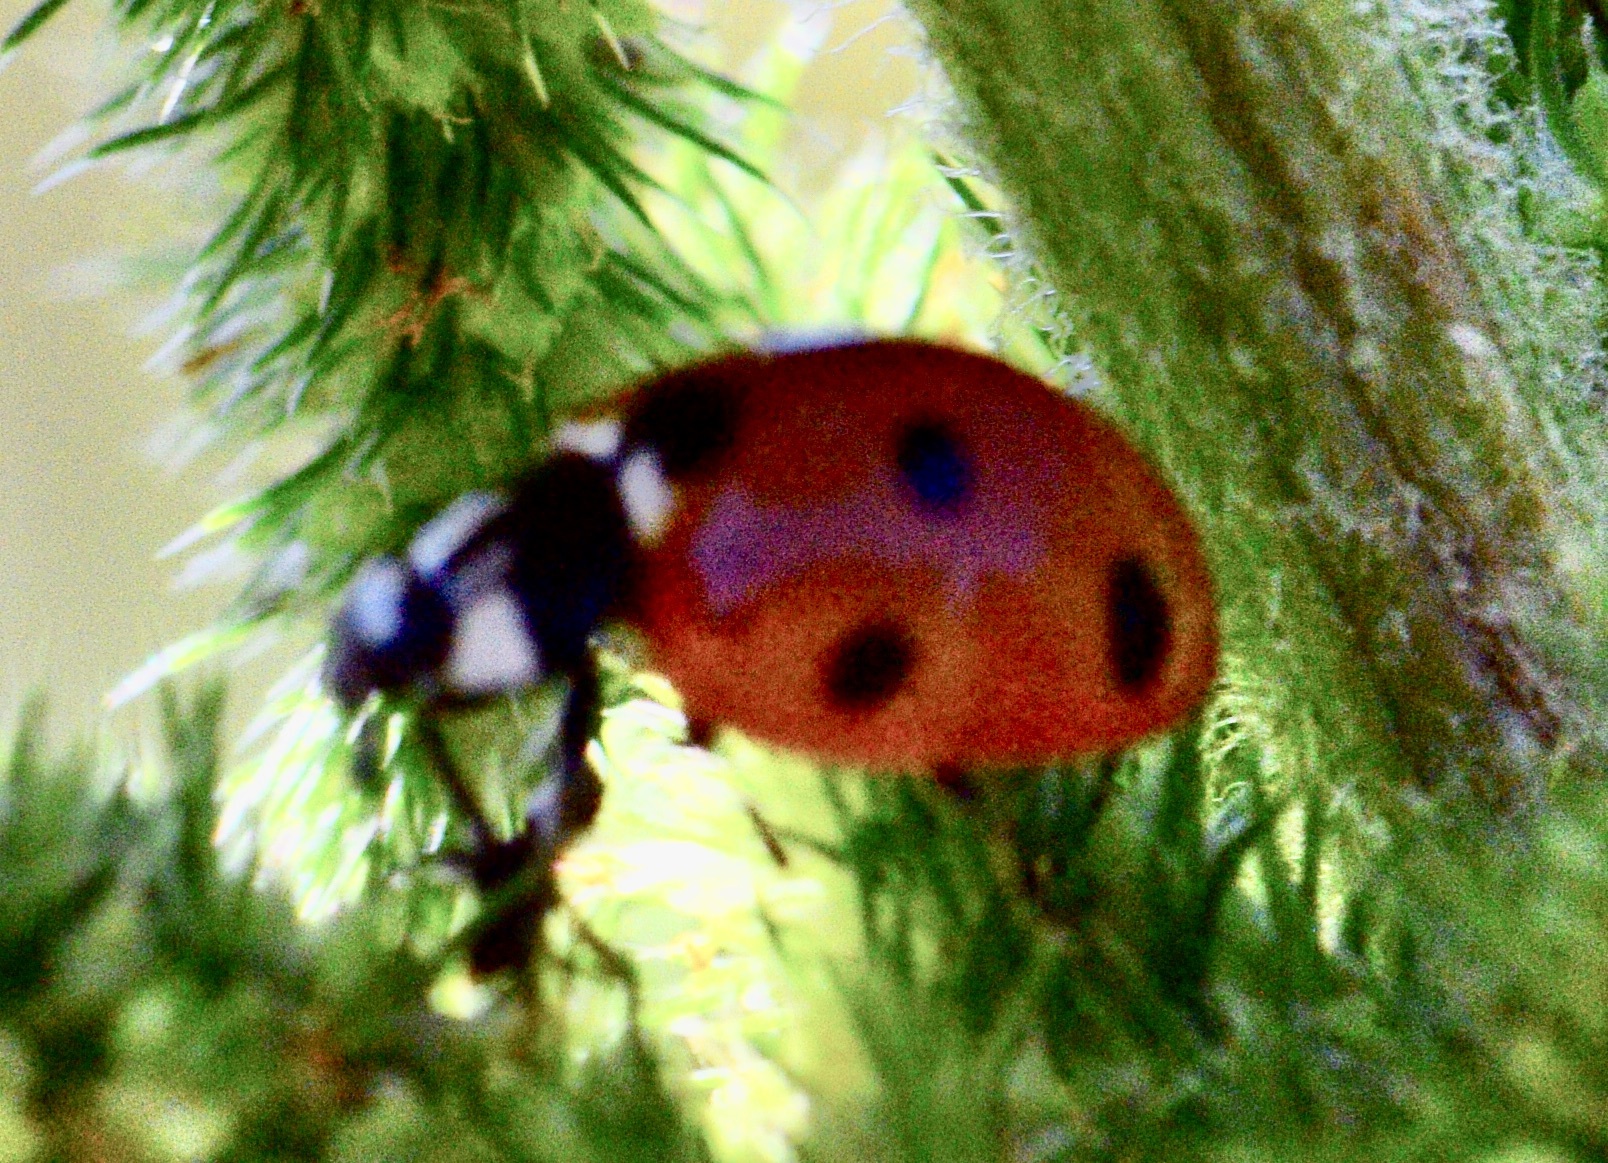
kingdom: Animalia
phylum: Arthropoda
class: Insecta
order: Coleoptera
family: Coccinellidae
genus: Coccinella
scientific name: Coccinella septempunctata
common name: Sevenspotted lady beetle
